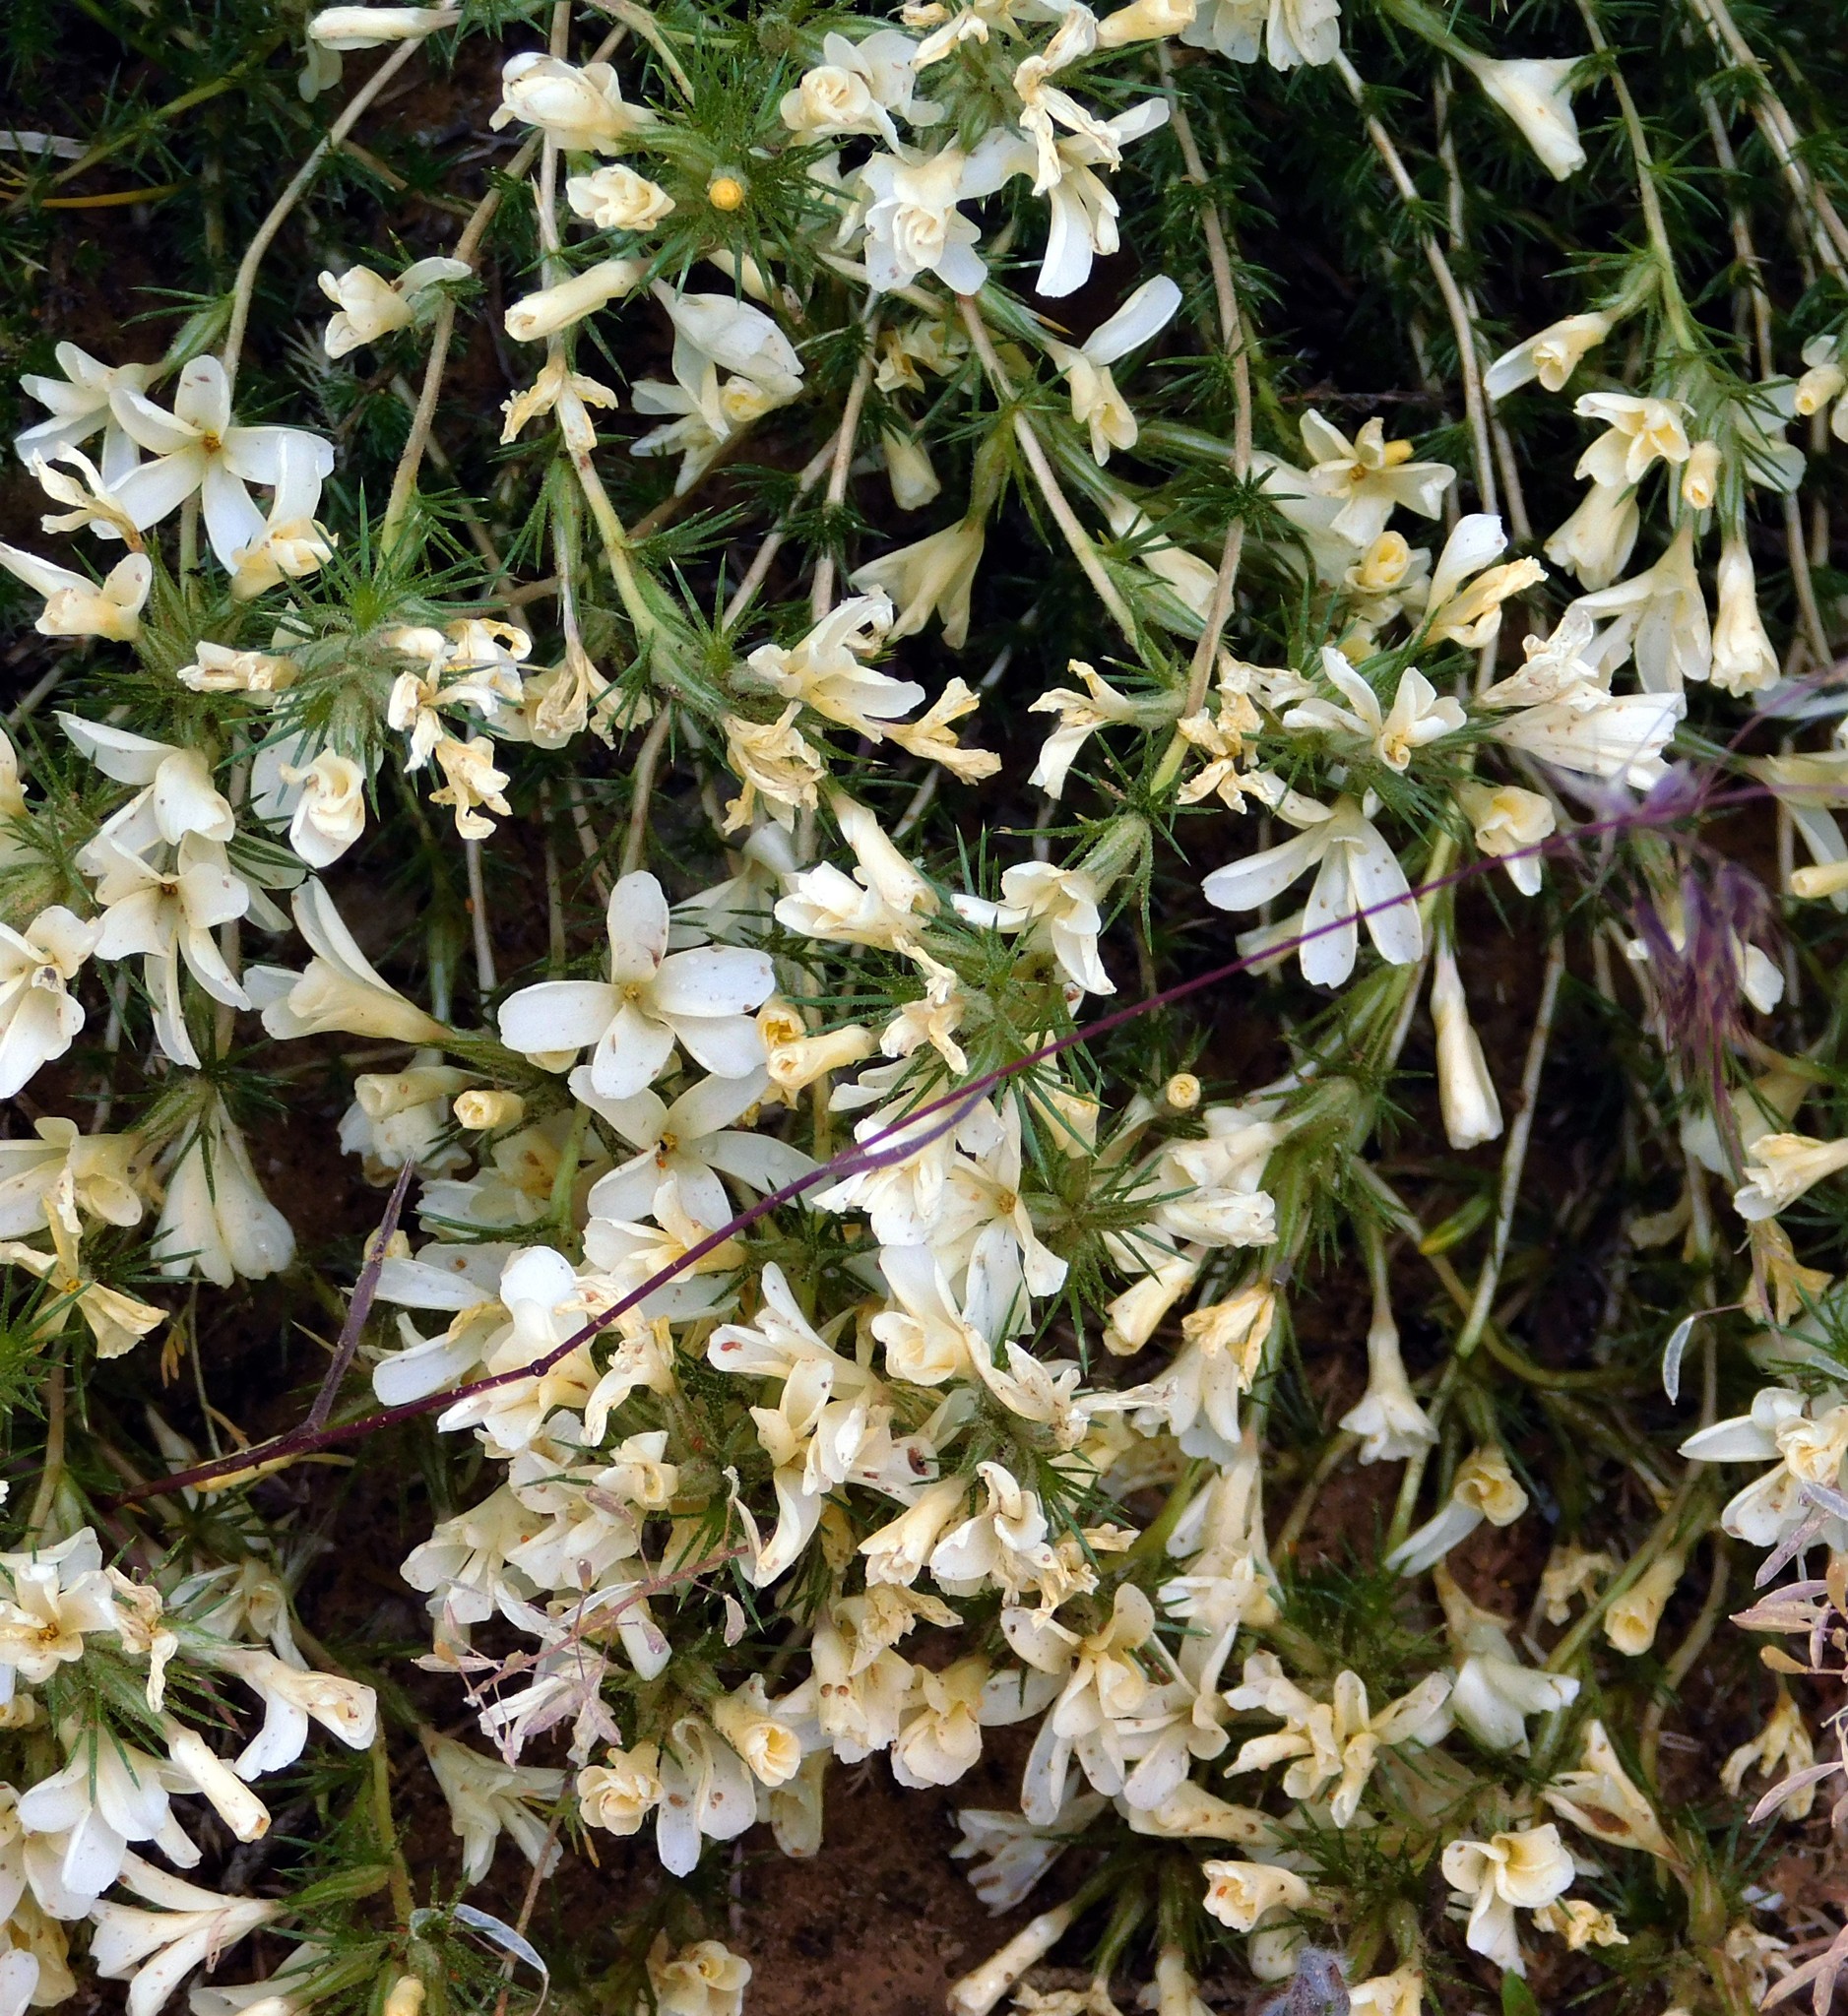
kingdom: Plantae
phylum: Tracheophyta
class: Magnoliopsida
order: Ericales
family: Polemoniaceae
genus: Linanthus
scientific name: Linanthus pungens
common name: Granite prickly phlox
